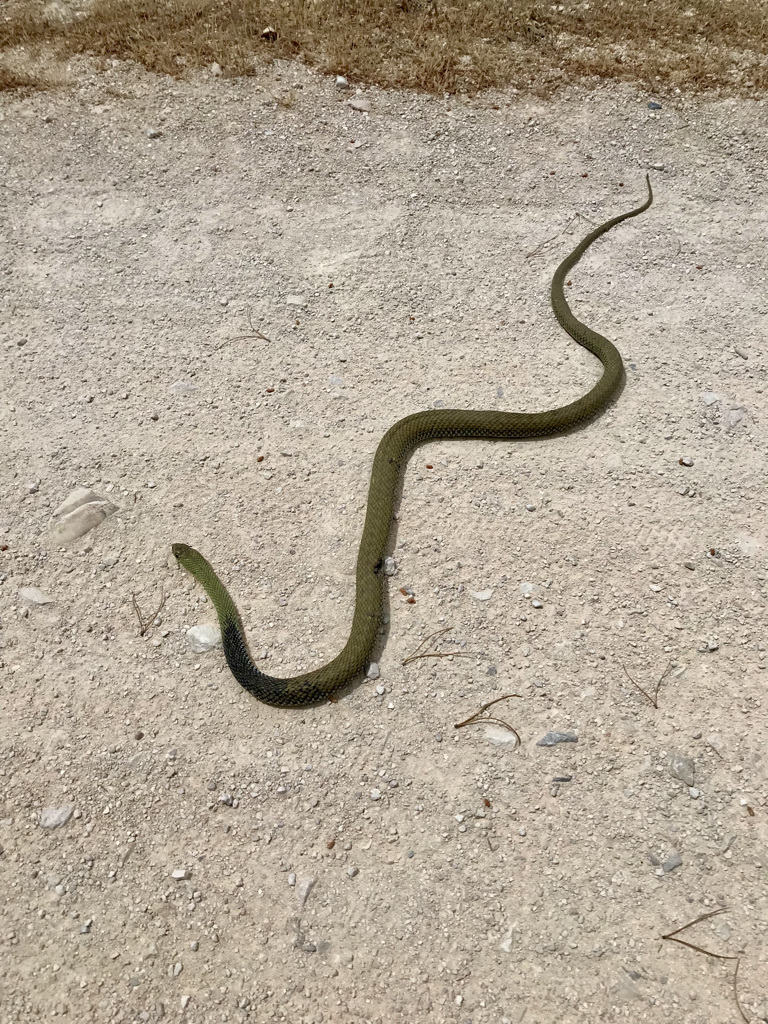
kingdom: Animalia
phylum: Chordata
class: Squamata
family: Psammophiidae
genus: Malpolon
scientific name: Malpolon monspessulanus
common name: Montpellier snake
